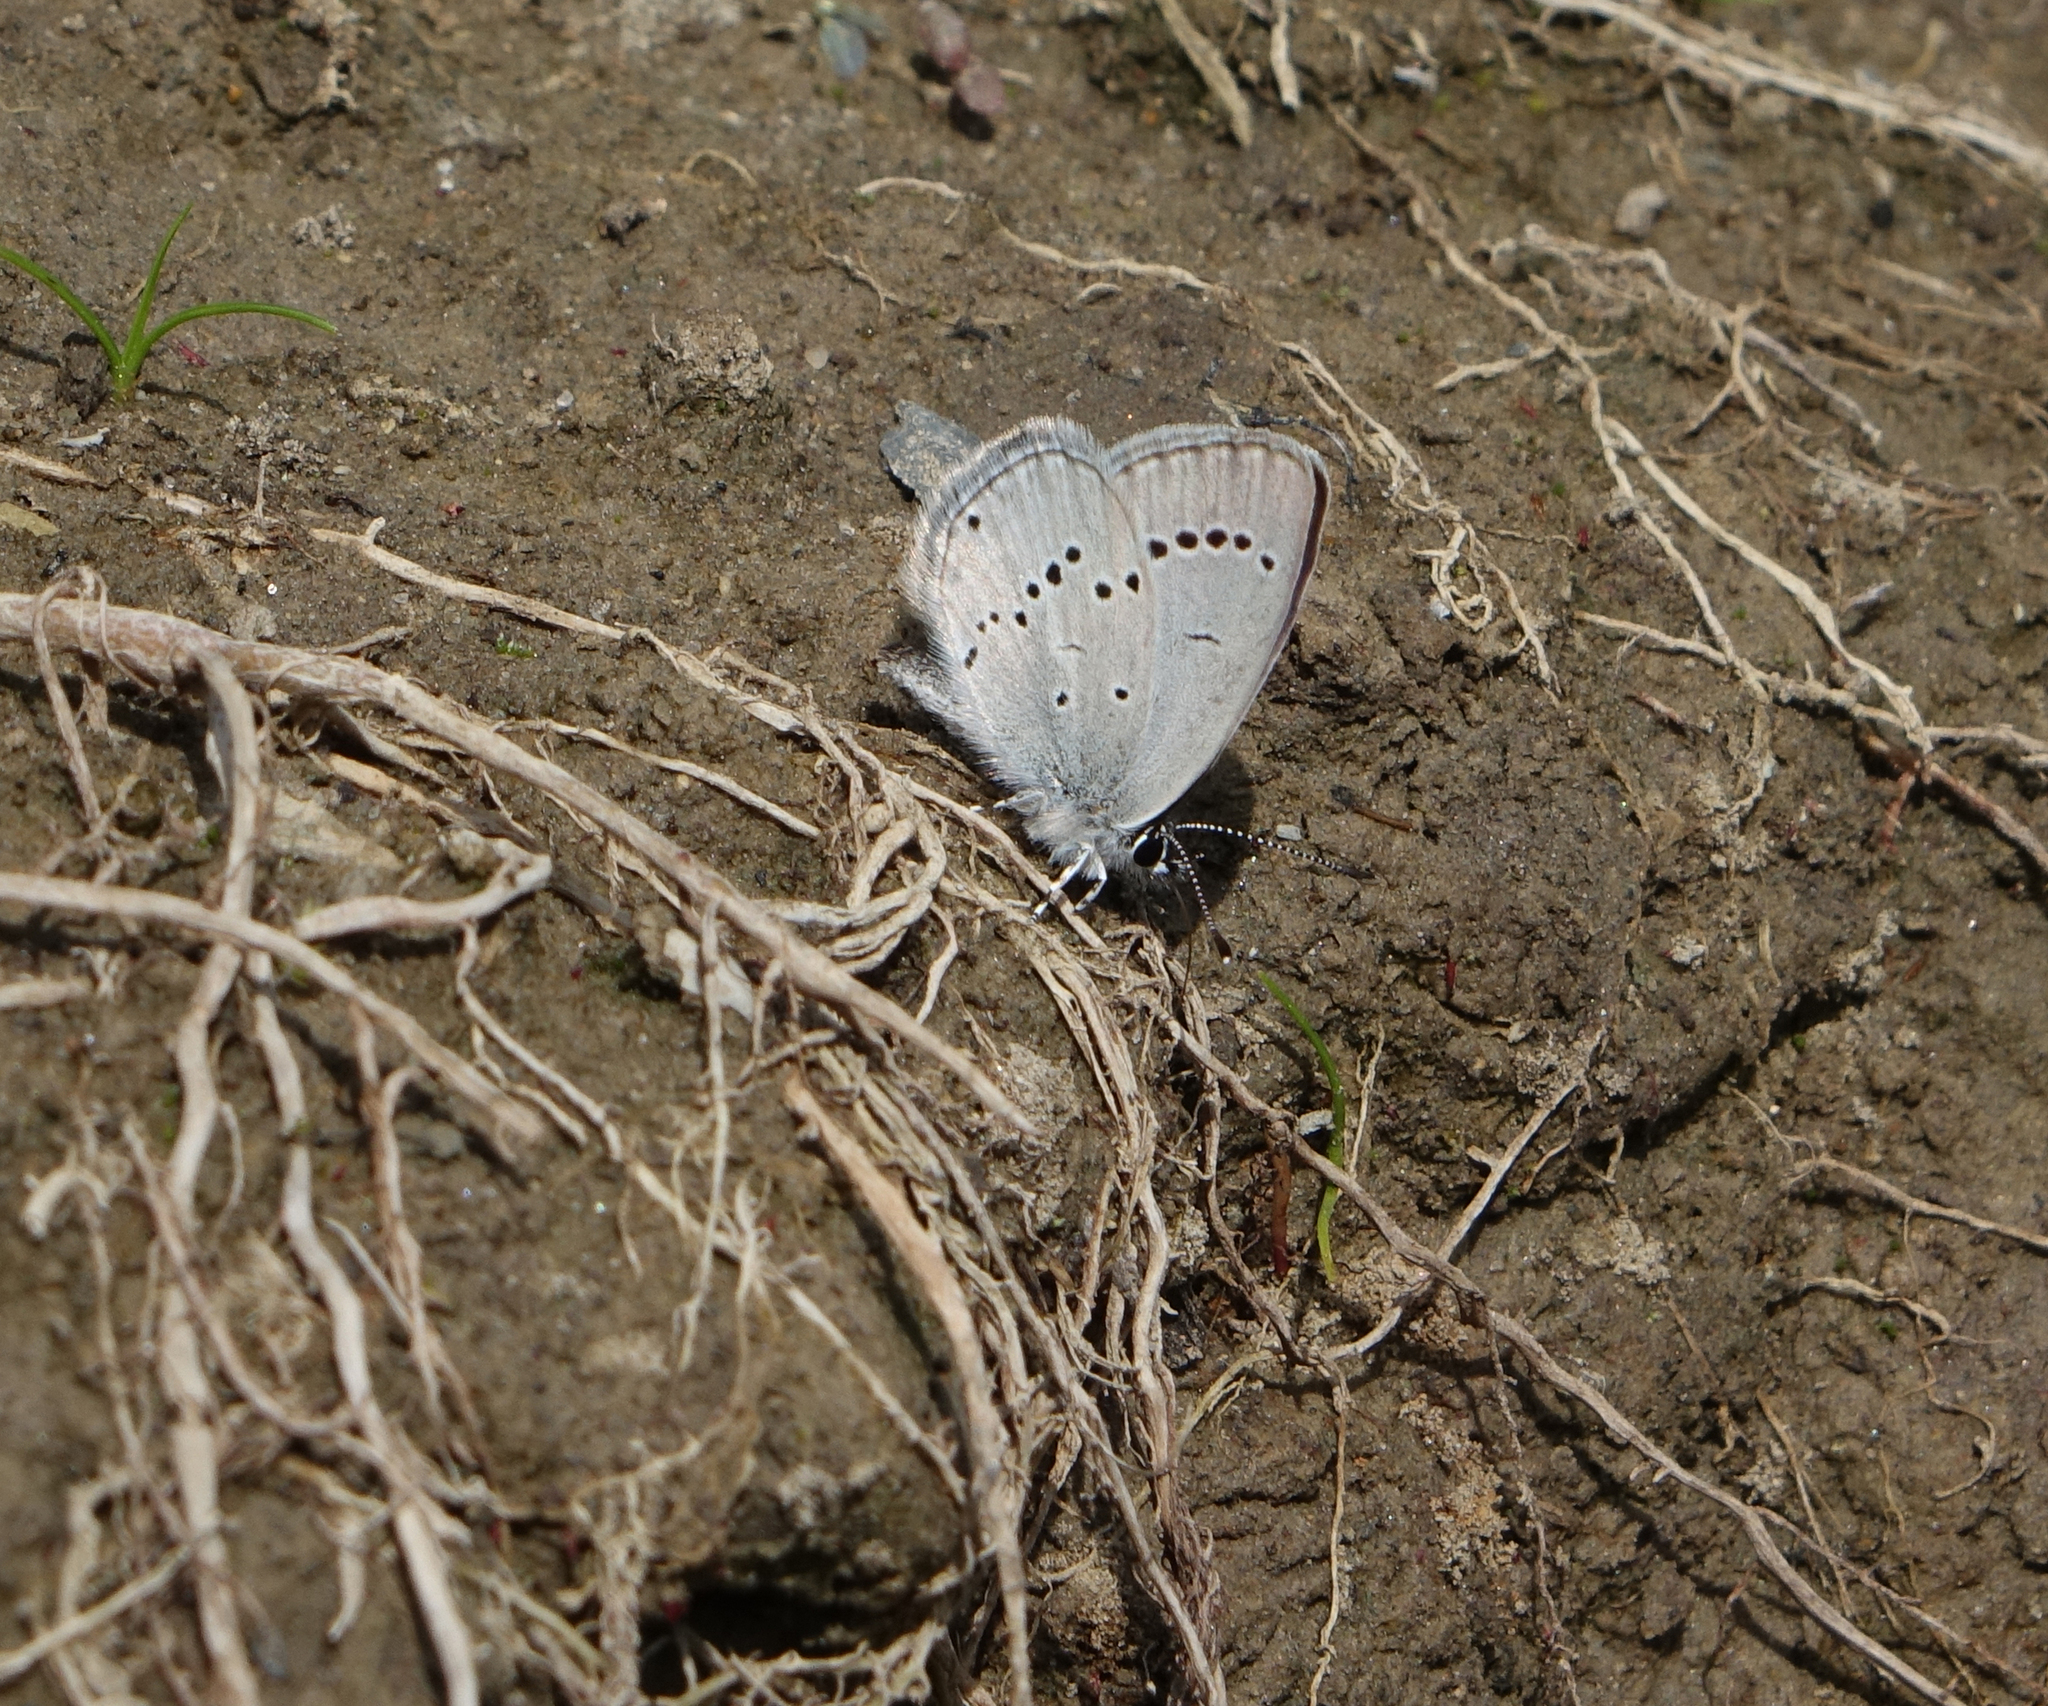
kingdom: Animalia
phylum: Arthropoda
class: Insecta
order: Lepidoptera
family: Lycaenidae
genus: Cupido
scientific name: Cupido minimus
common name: Small blue
